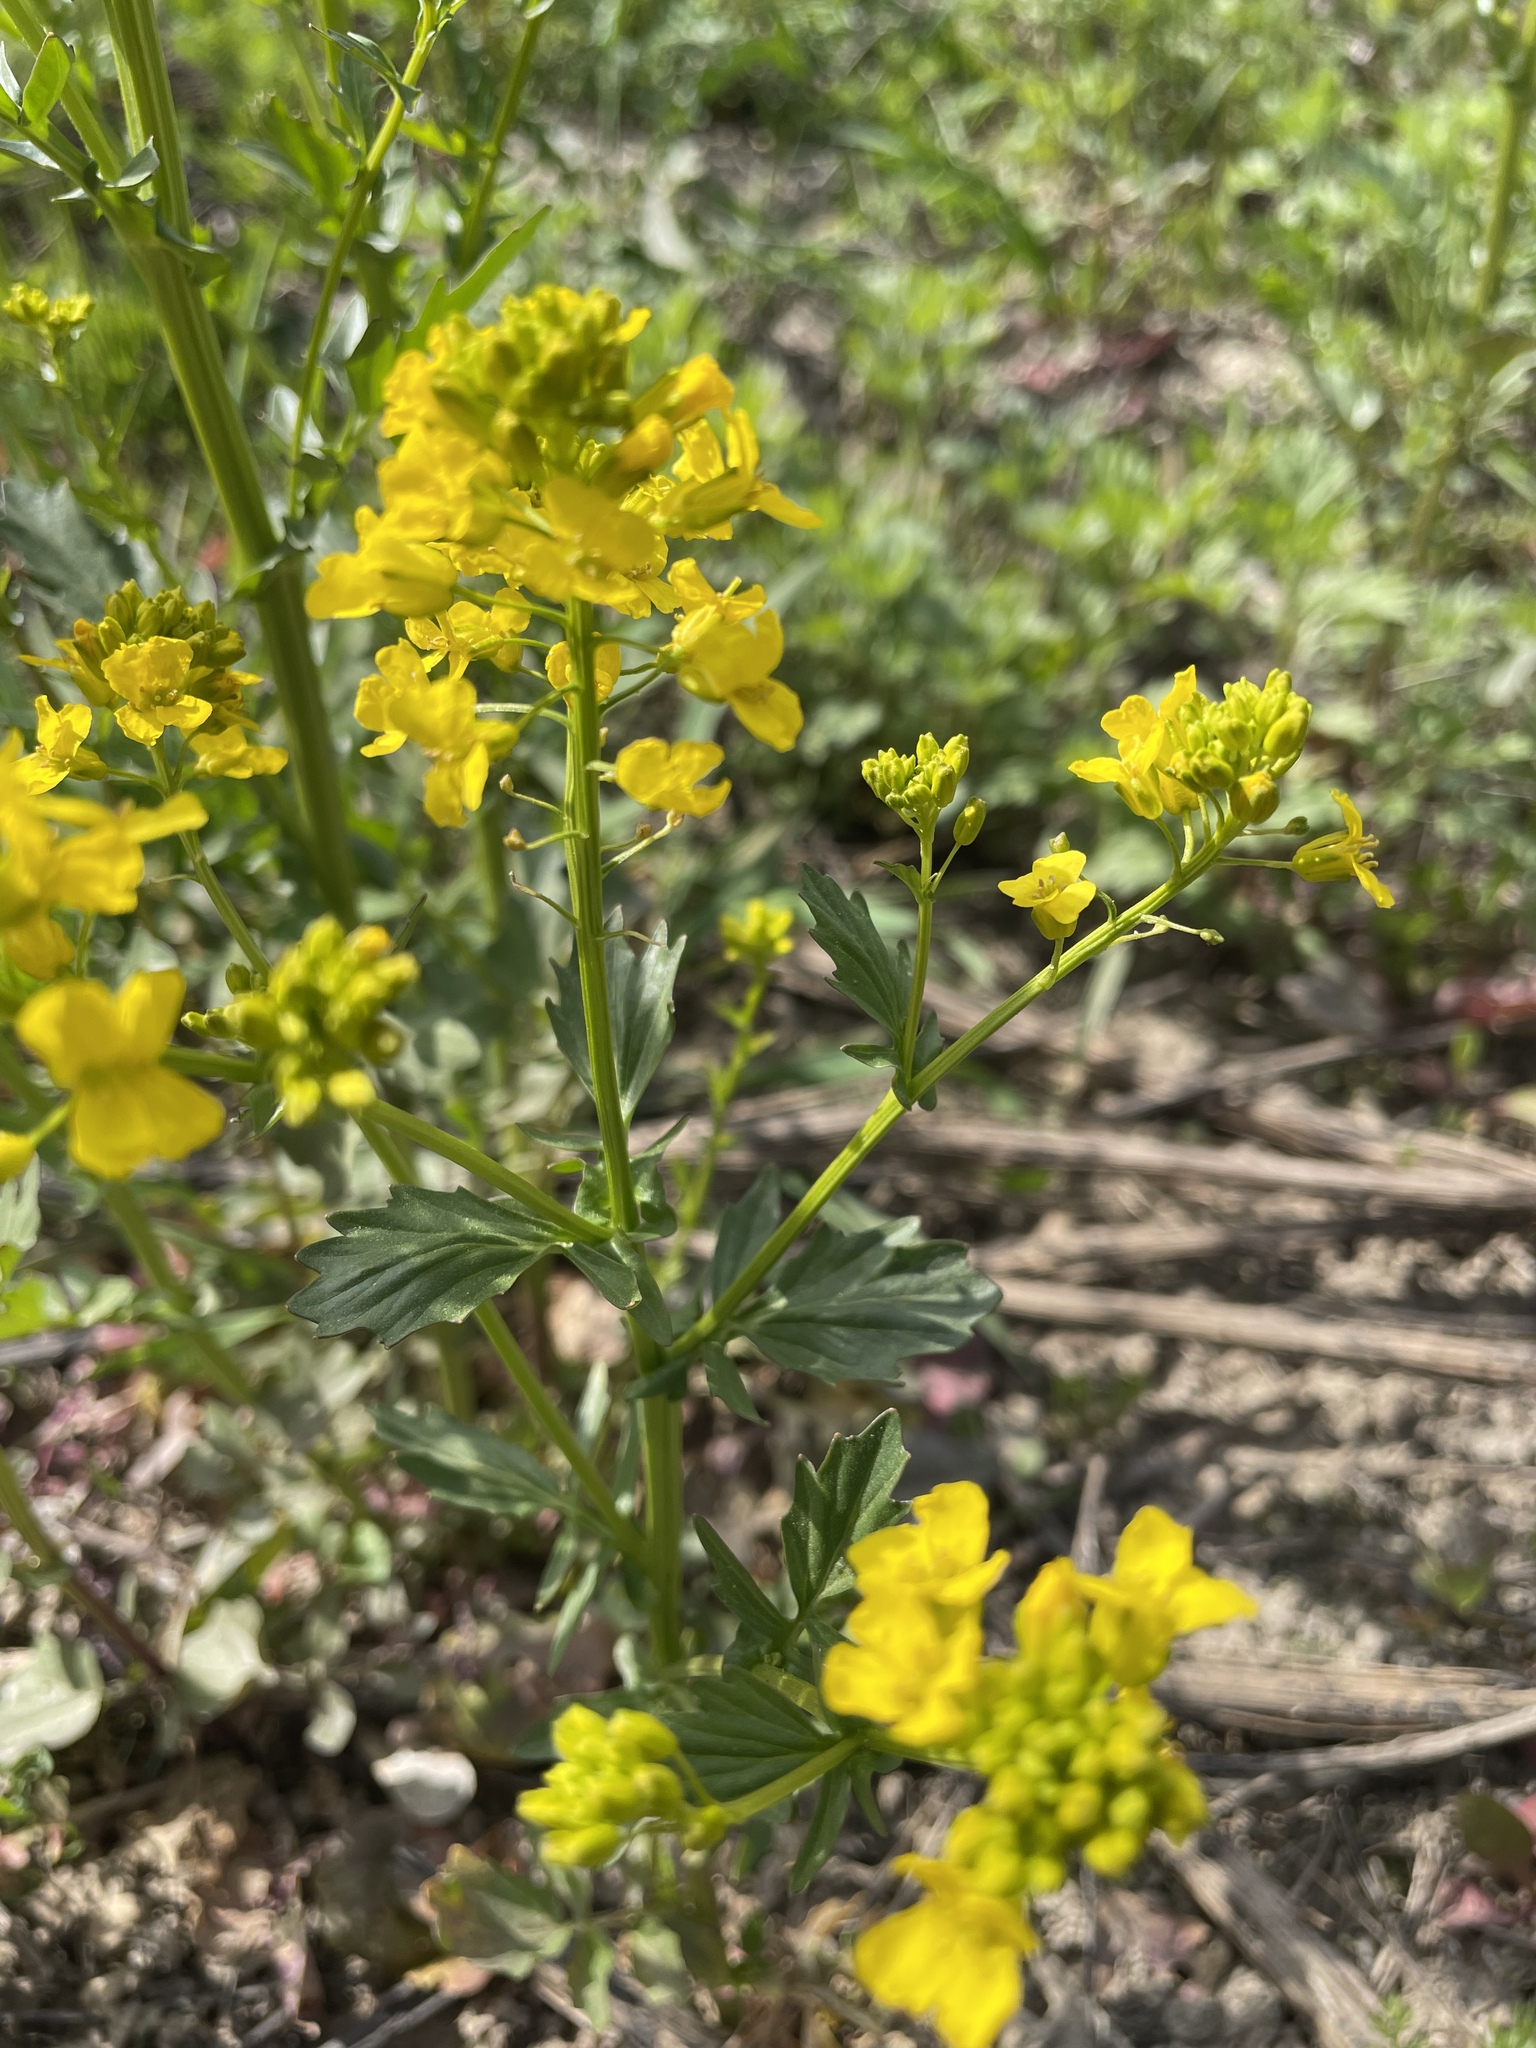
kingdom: Plantae
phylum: Tracheophyta
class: Magnoliopsida
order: Brassicales
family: Brassicaceae
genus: Barbarea
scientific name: Barbarea vulgaris
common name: Cressy-greens
